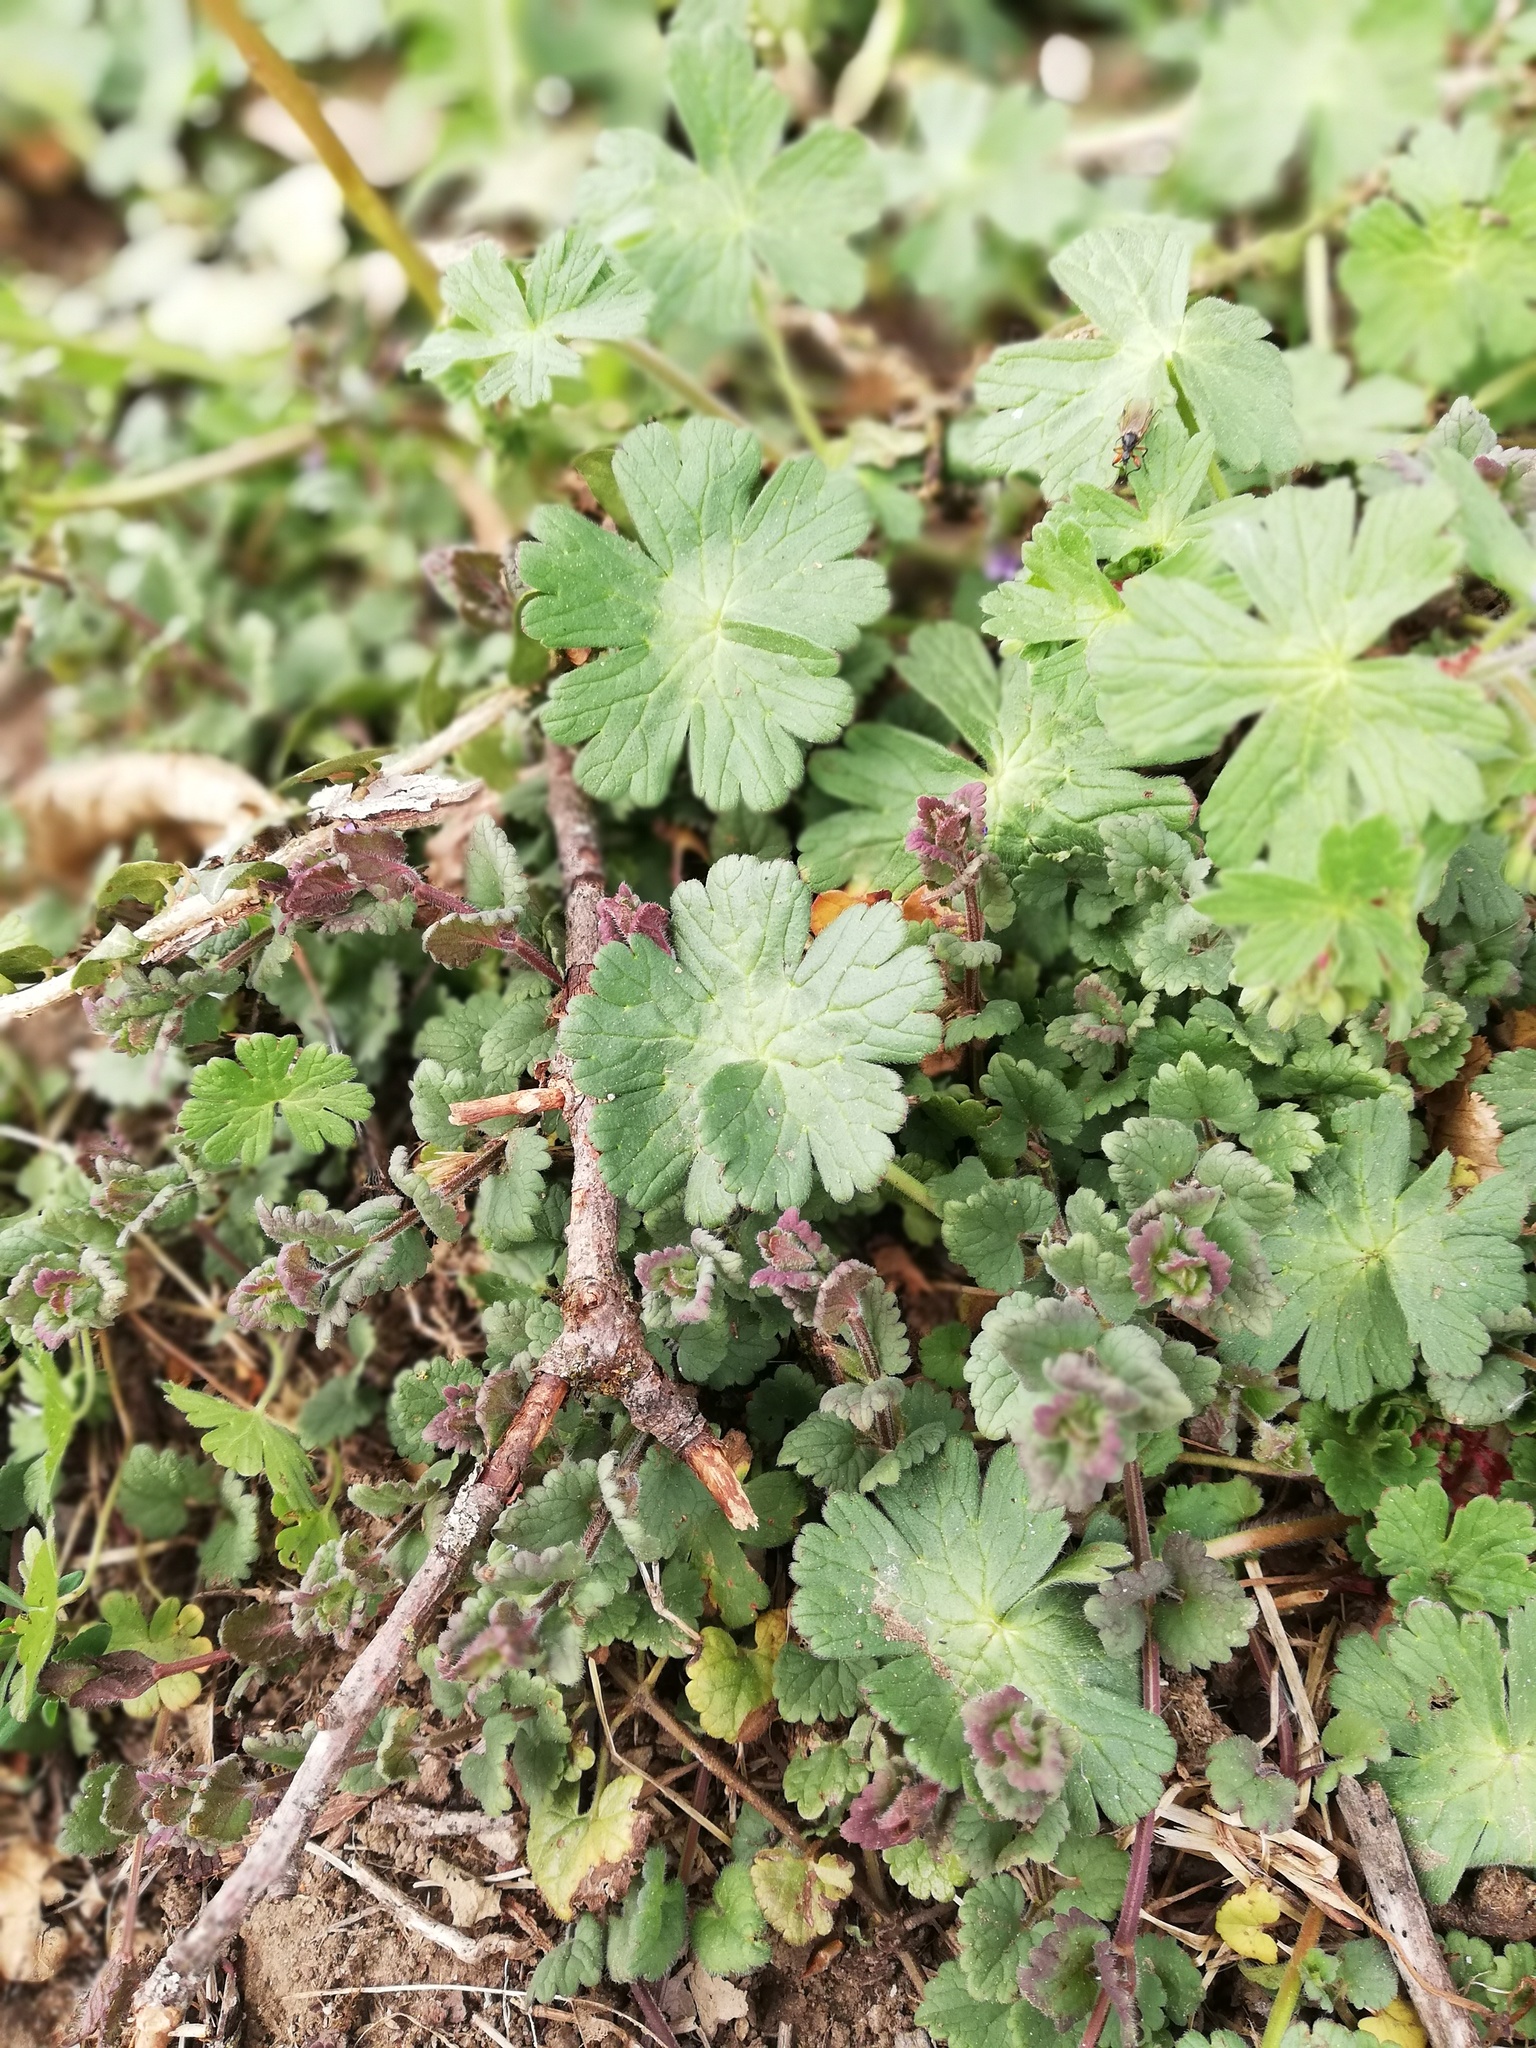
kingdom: Plantae
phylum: Tracheophyta
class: Magnoliopsida
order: Geraniales
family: Geraniaceae
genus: Geranium
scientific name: Geranium pyrenaicum
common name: Hedgerow crane's-bill
